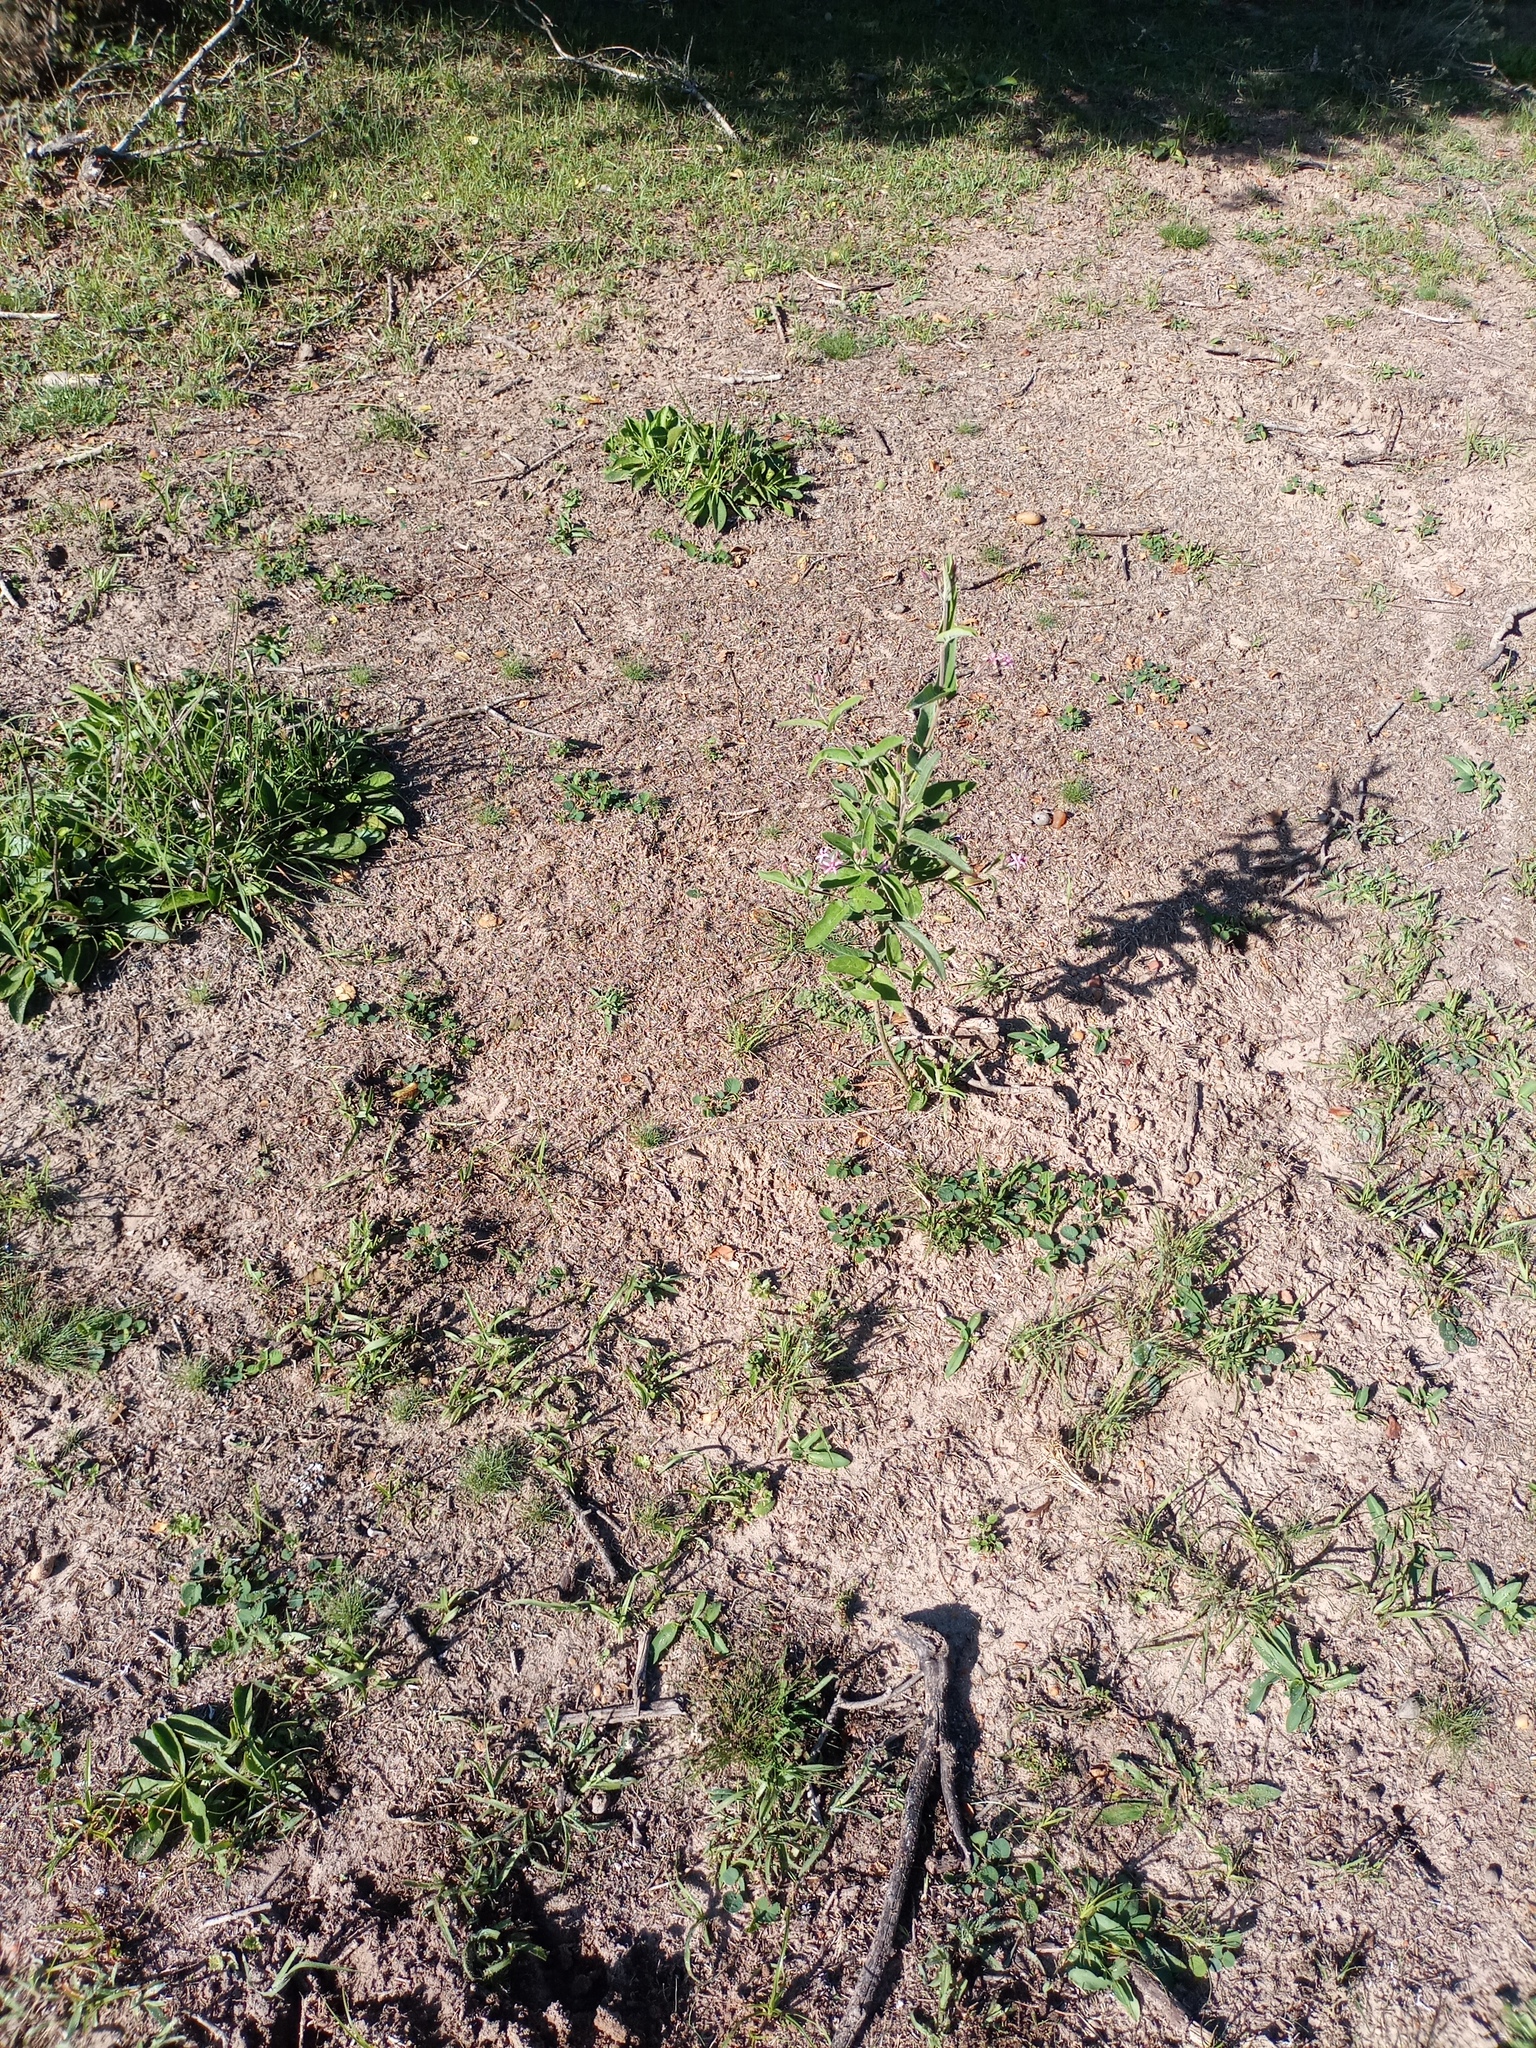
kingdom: Plantae
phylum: Tracheophyta
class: Magnoliopsida
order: Gentianales
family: Apocynaceae
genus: Oxypetalum
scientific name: Oxypetalum solanoides
